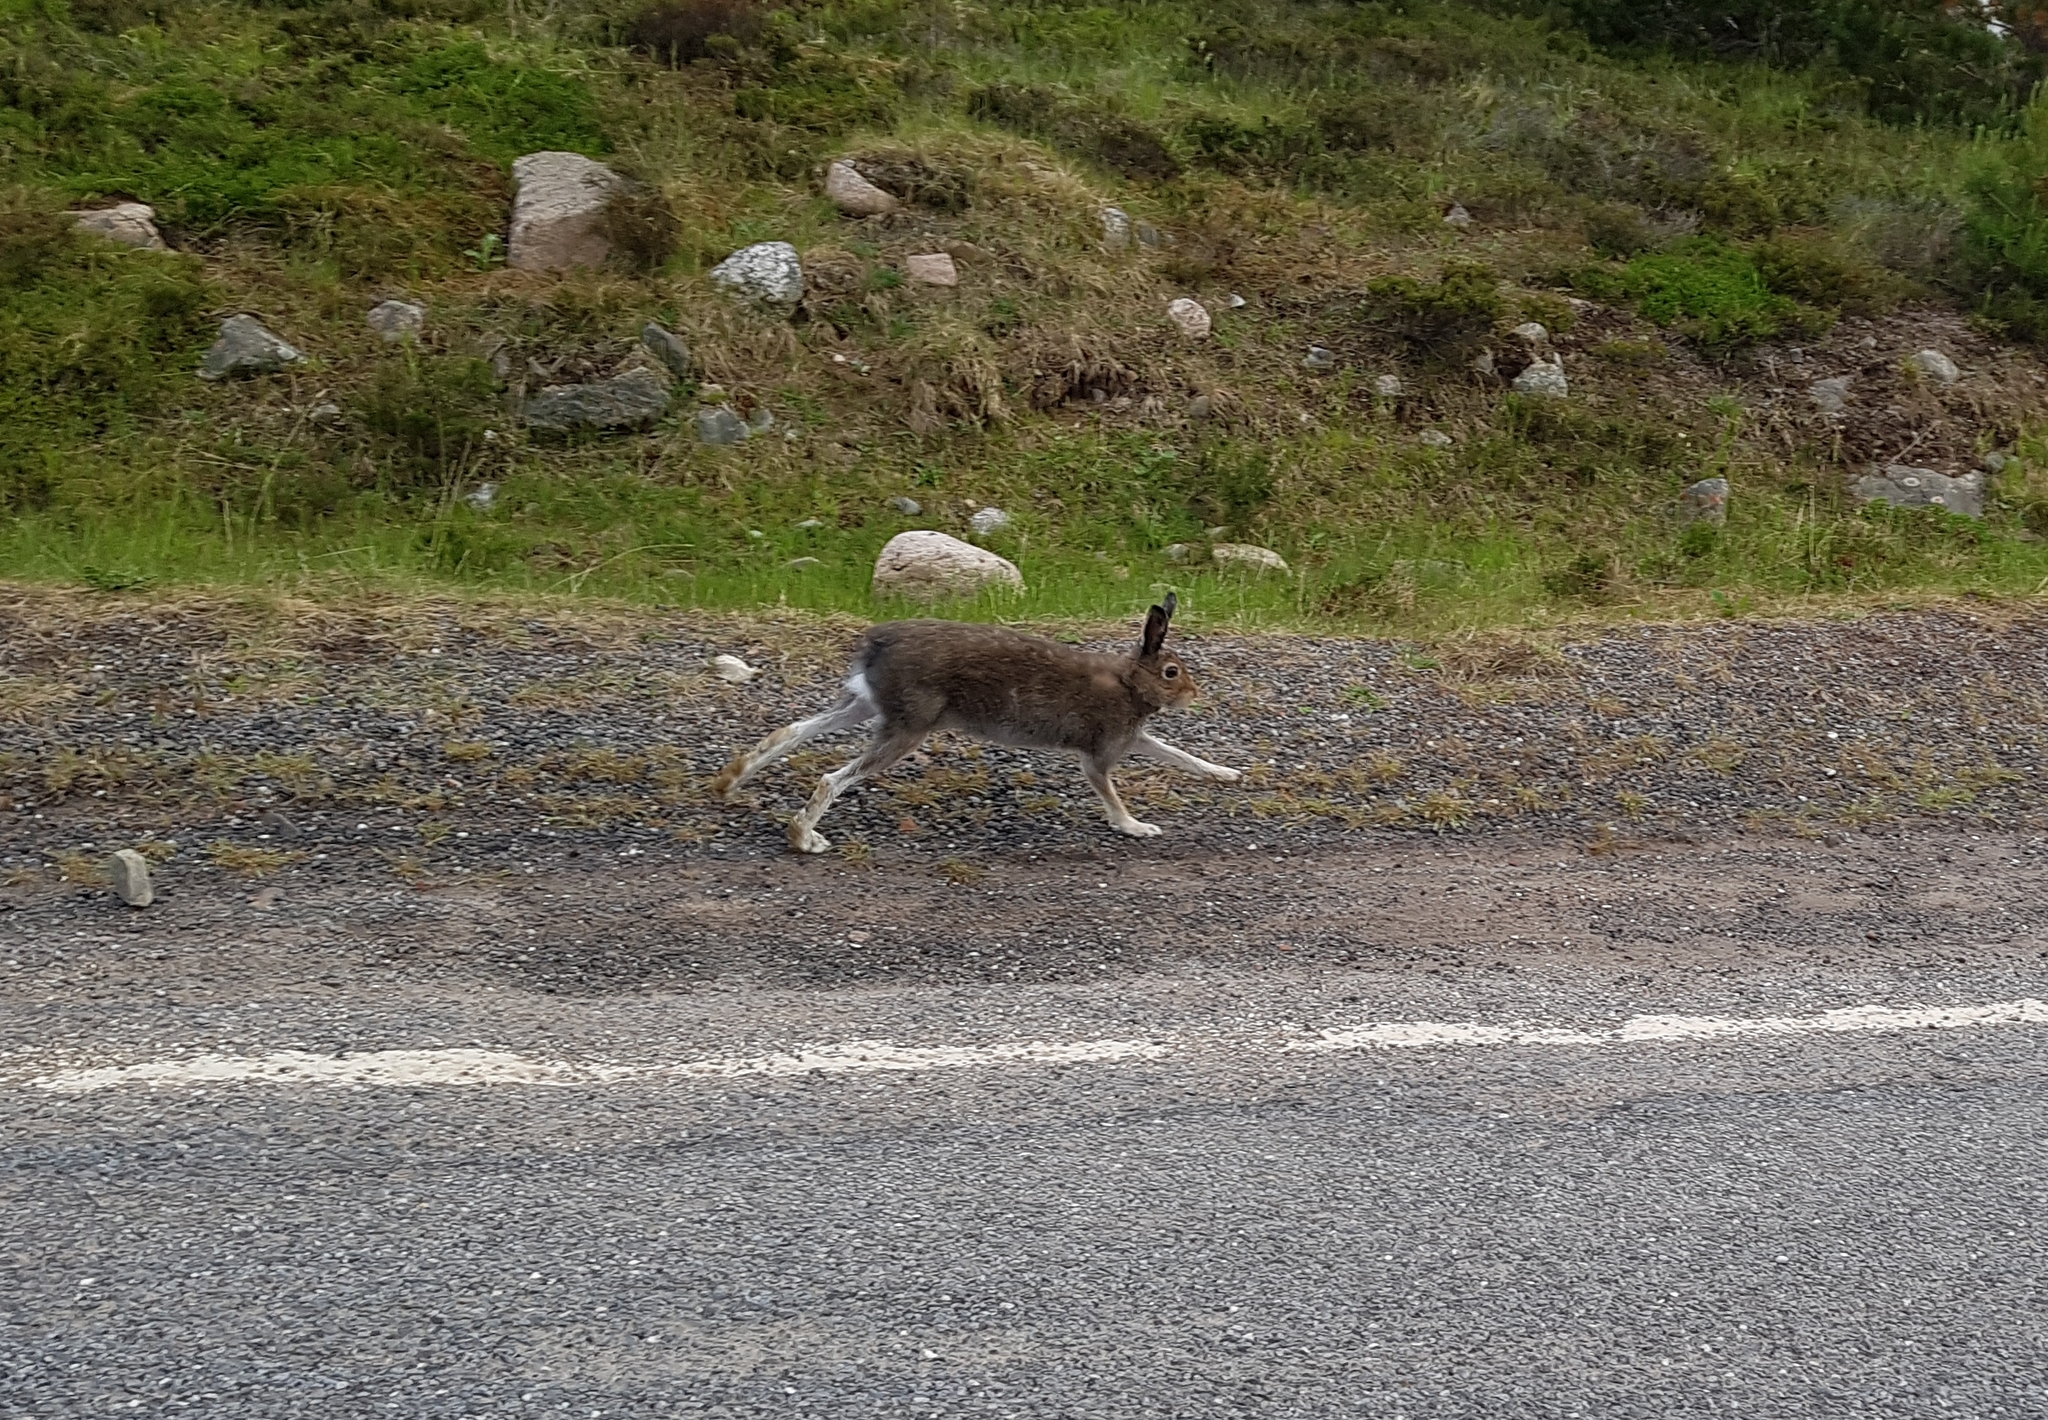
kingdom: Animalia
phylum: Chordata
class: Mammalia
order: Lagomorpha
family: Leporidae
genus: Lepus
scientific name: Lepus timidus
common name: Mountain hare
